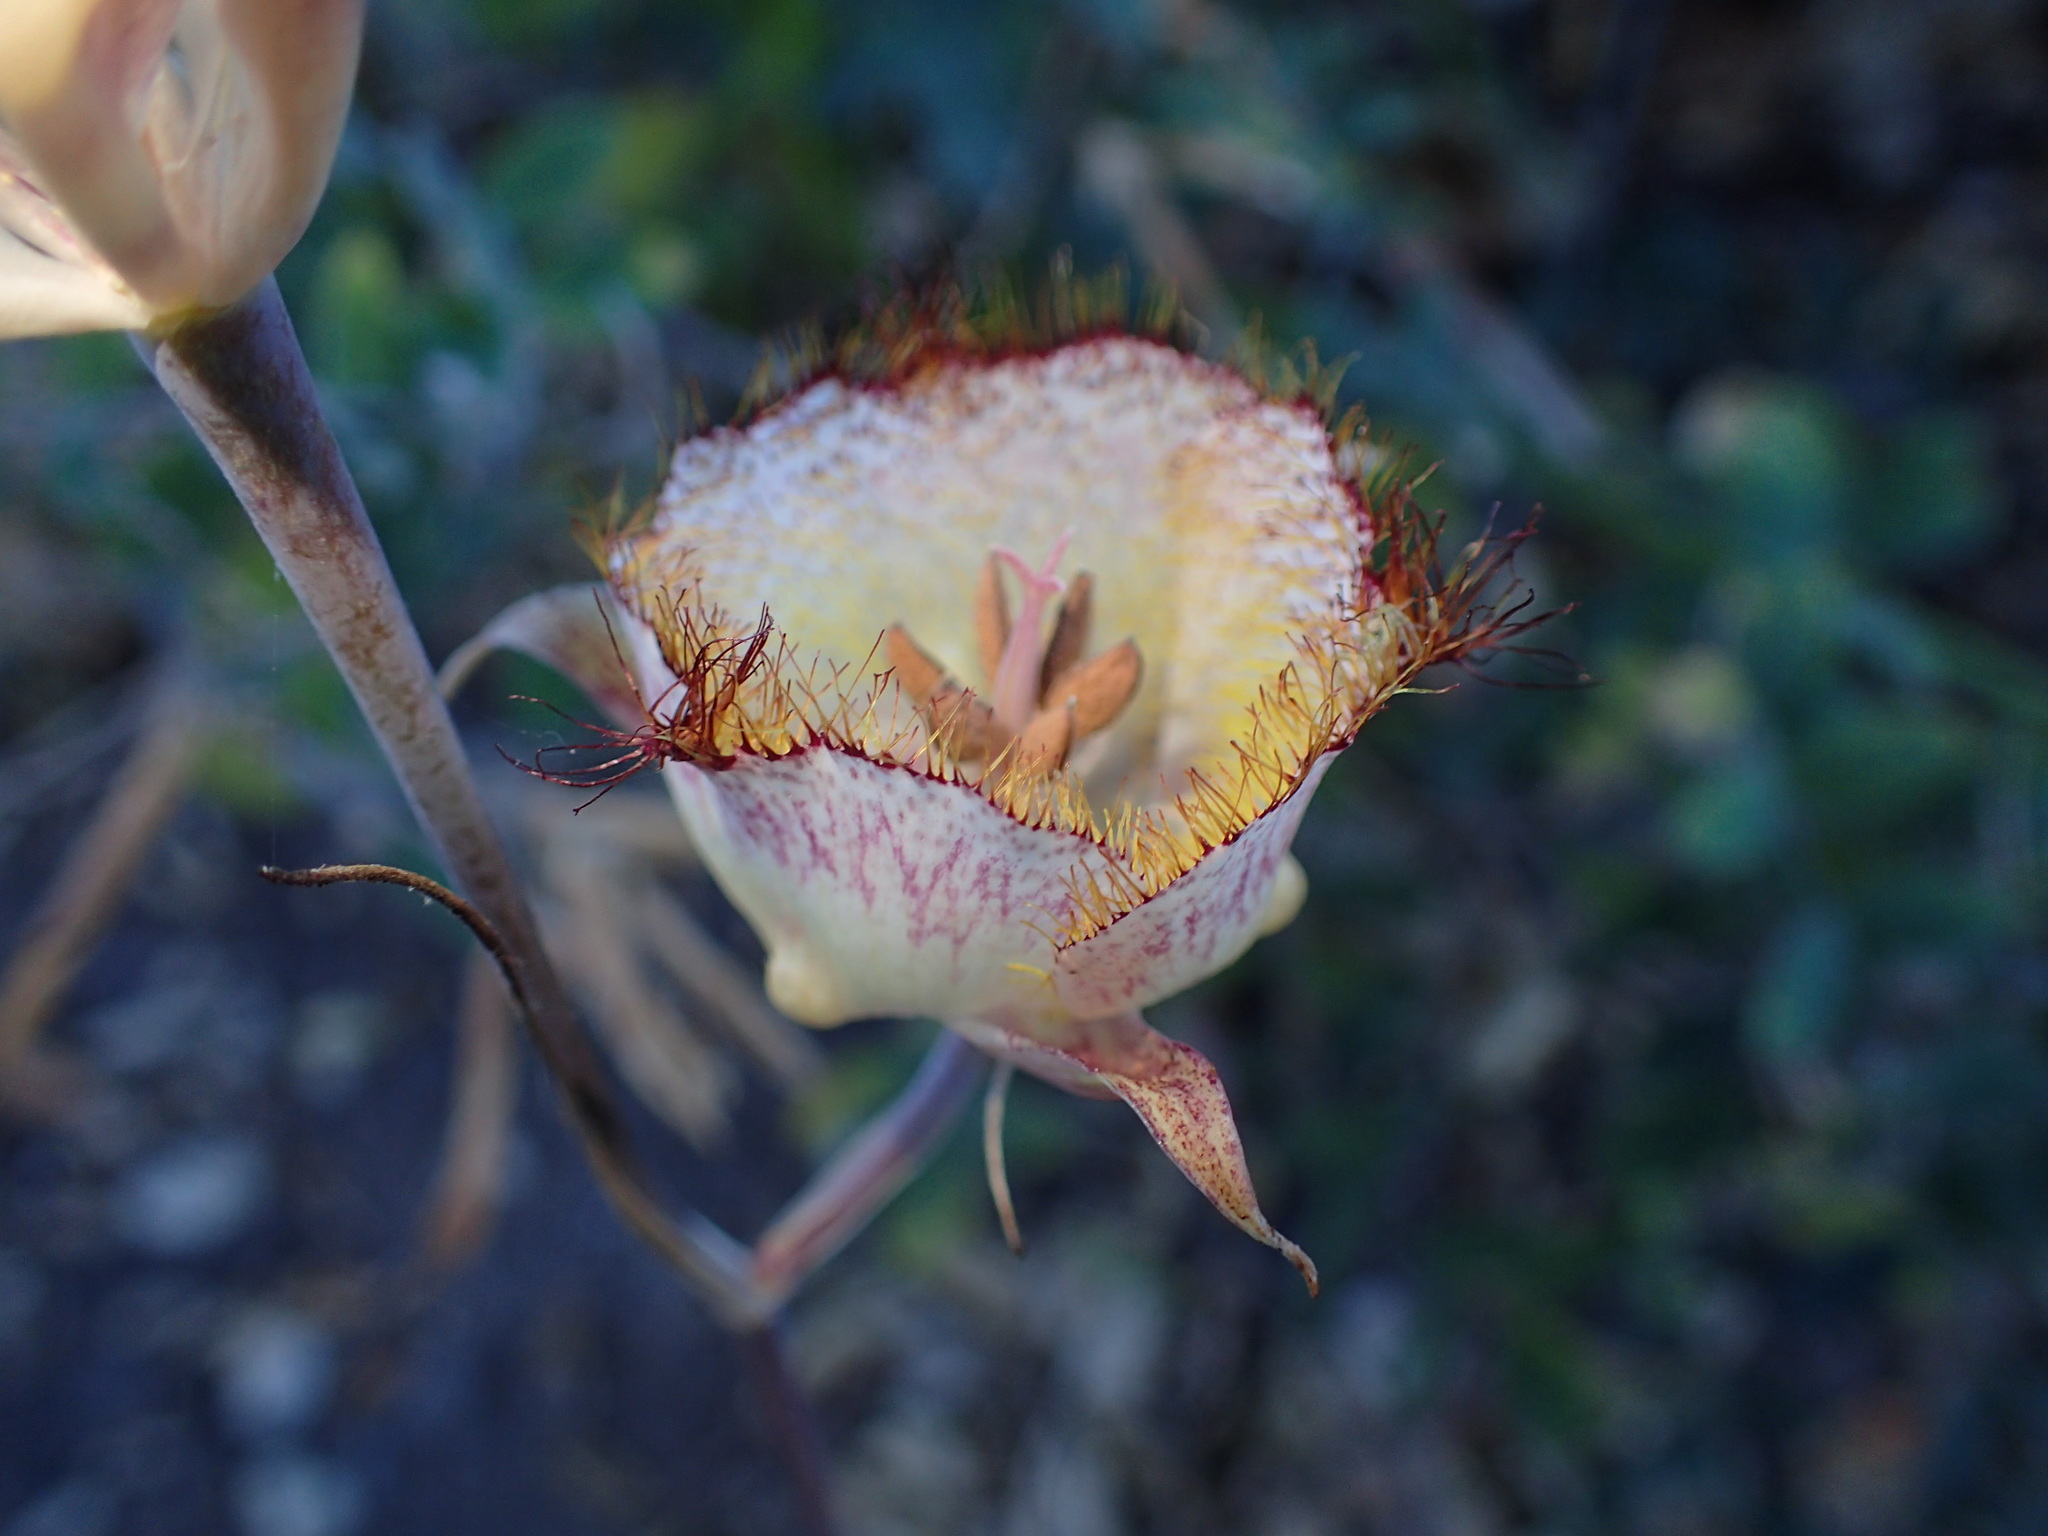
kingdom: Plantae
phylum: Tracheophyta
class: Liliopsida
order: Liliales
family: Liliaceae
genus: Calochortus
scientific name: Calochortus fimbriatus
